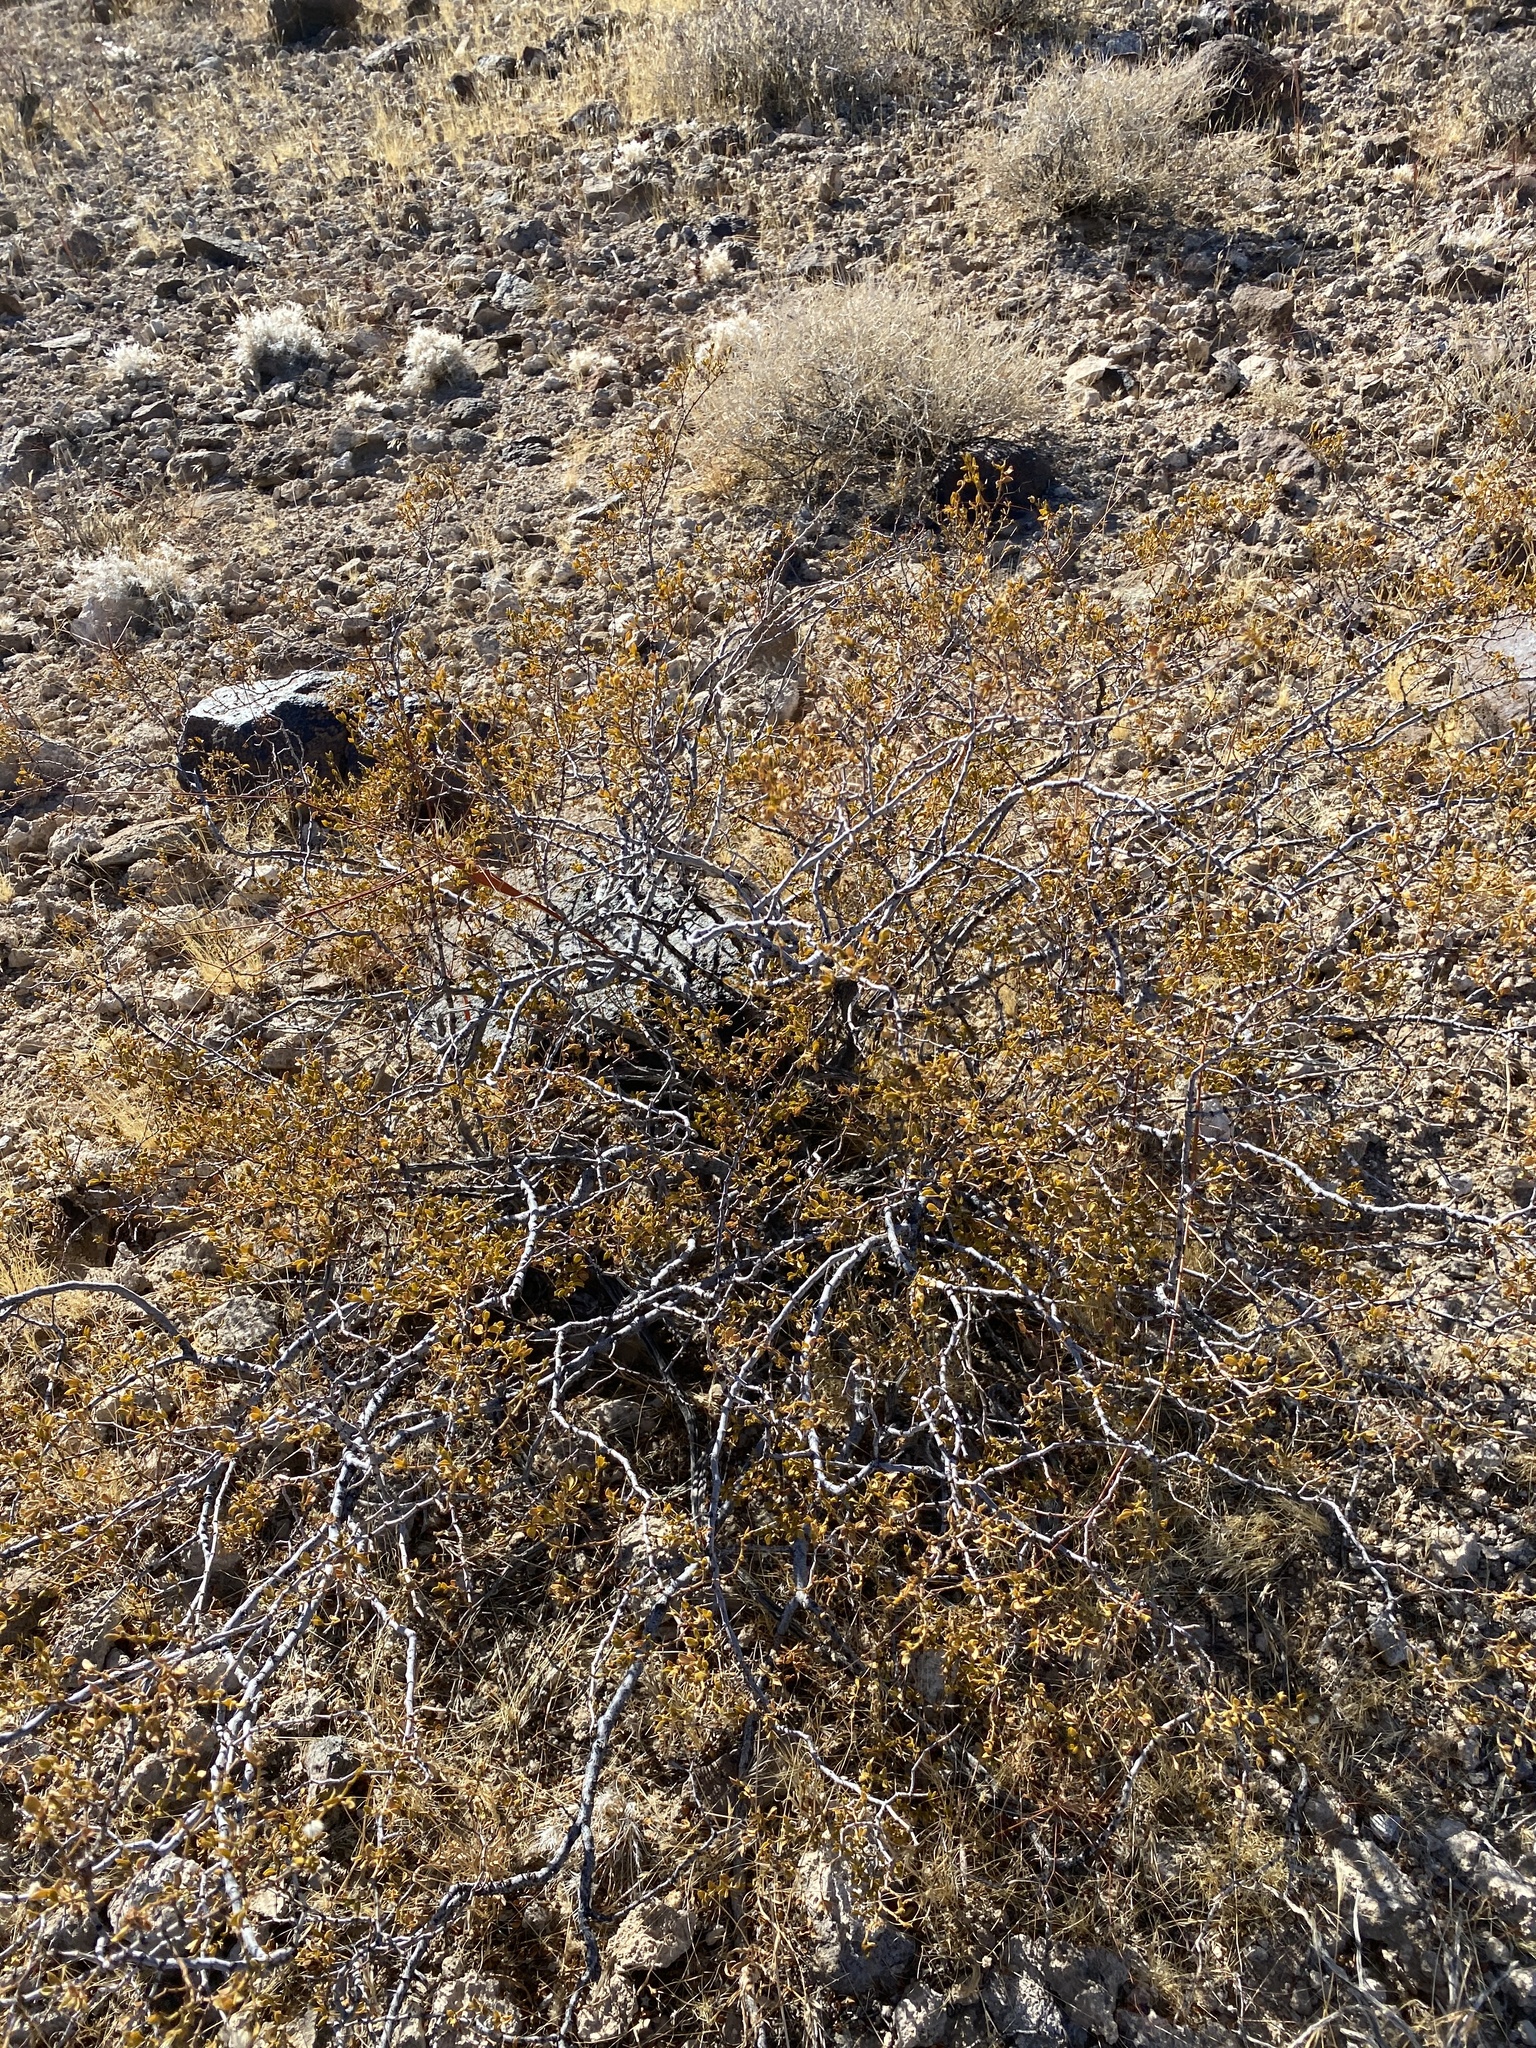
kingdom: Plantae
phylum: Tracheophyta
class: Magnoliopsida
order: Zygophyllales
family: Zygophyllaceae
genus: Larrea
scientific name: Larrea tridentata
